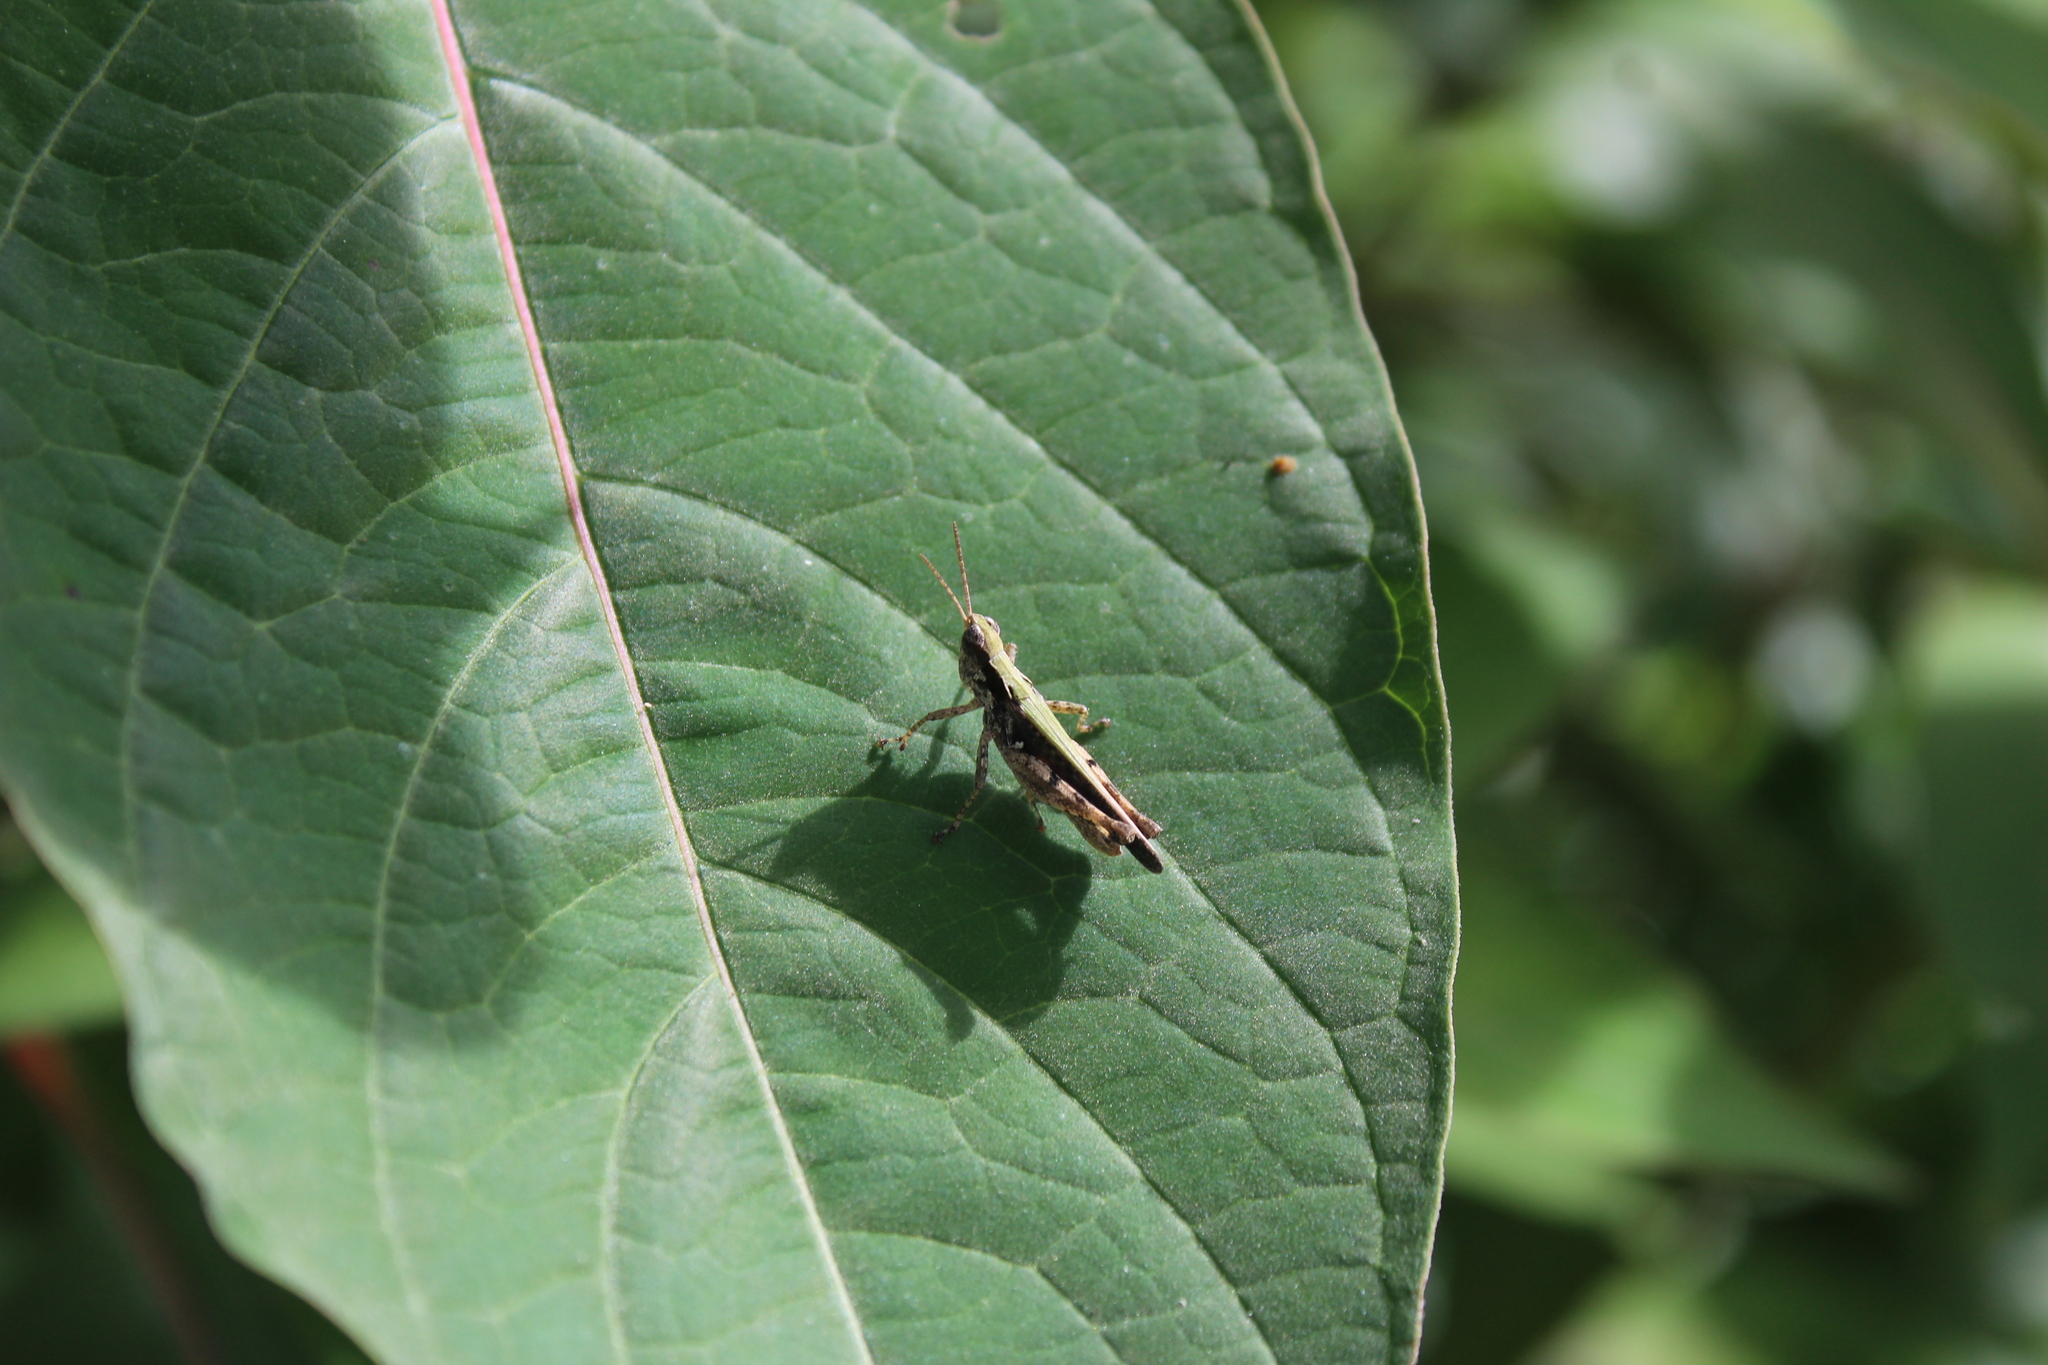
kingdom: Animalia
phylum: Arthropoda
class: Insecta
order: Orthoptera
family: Acrididae
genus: Orphulella
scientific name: Orphulella punctata
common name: Slant-faced grasshopper
